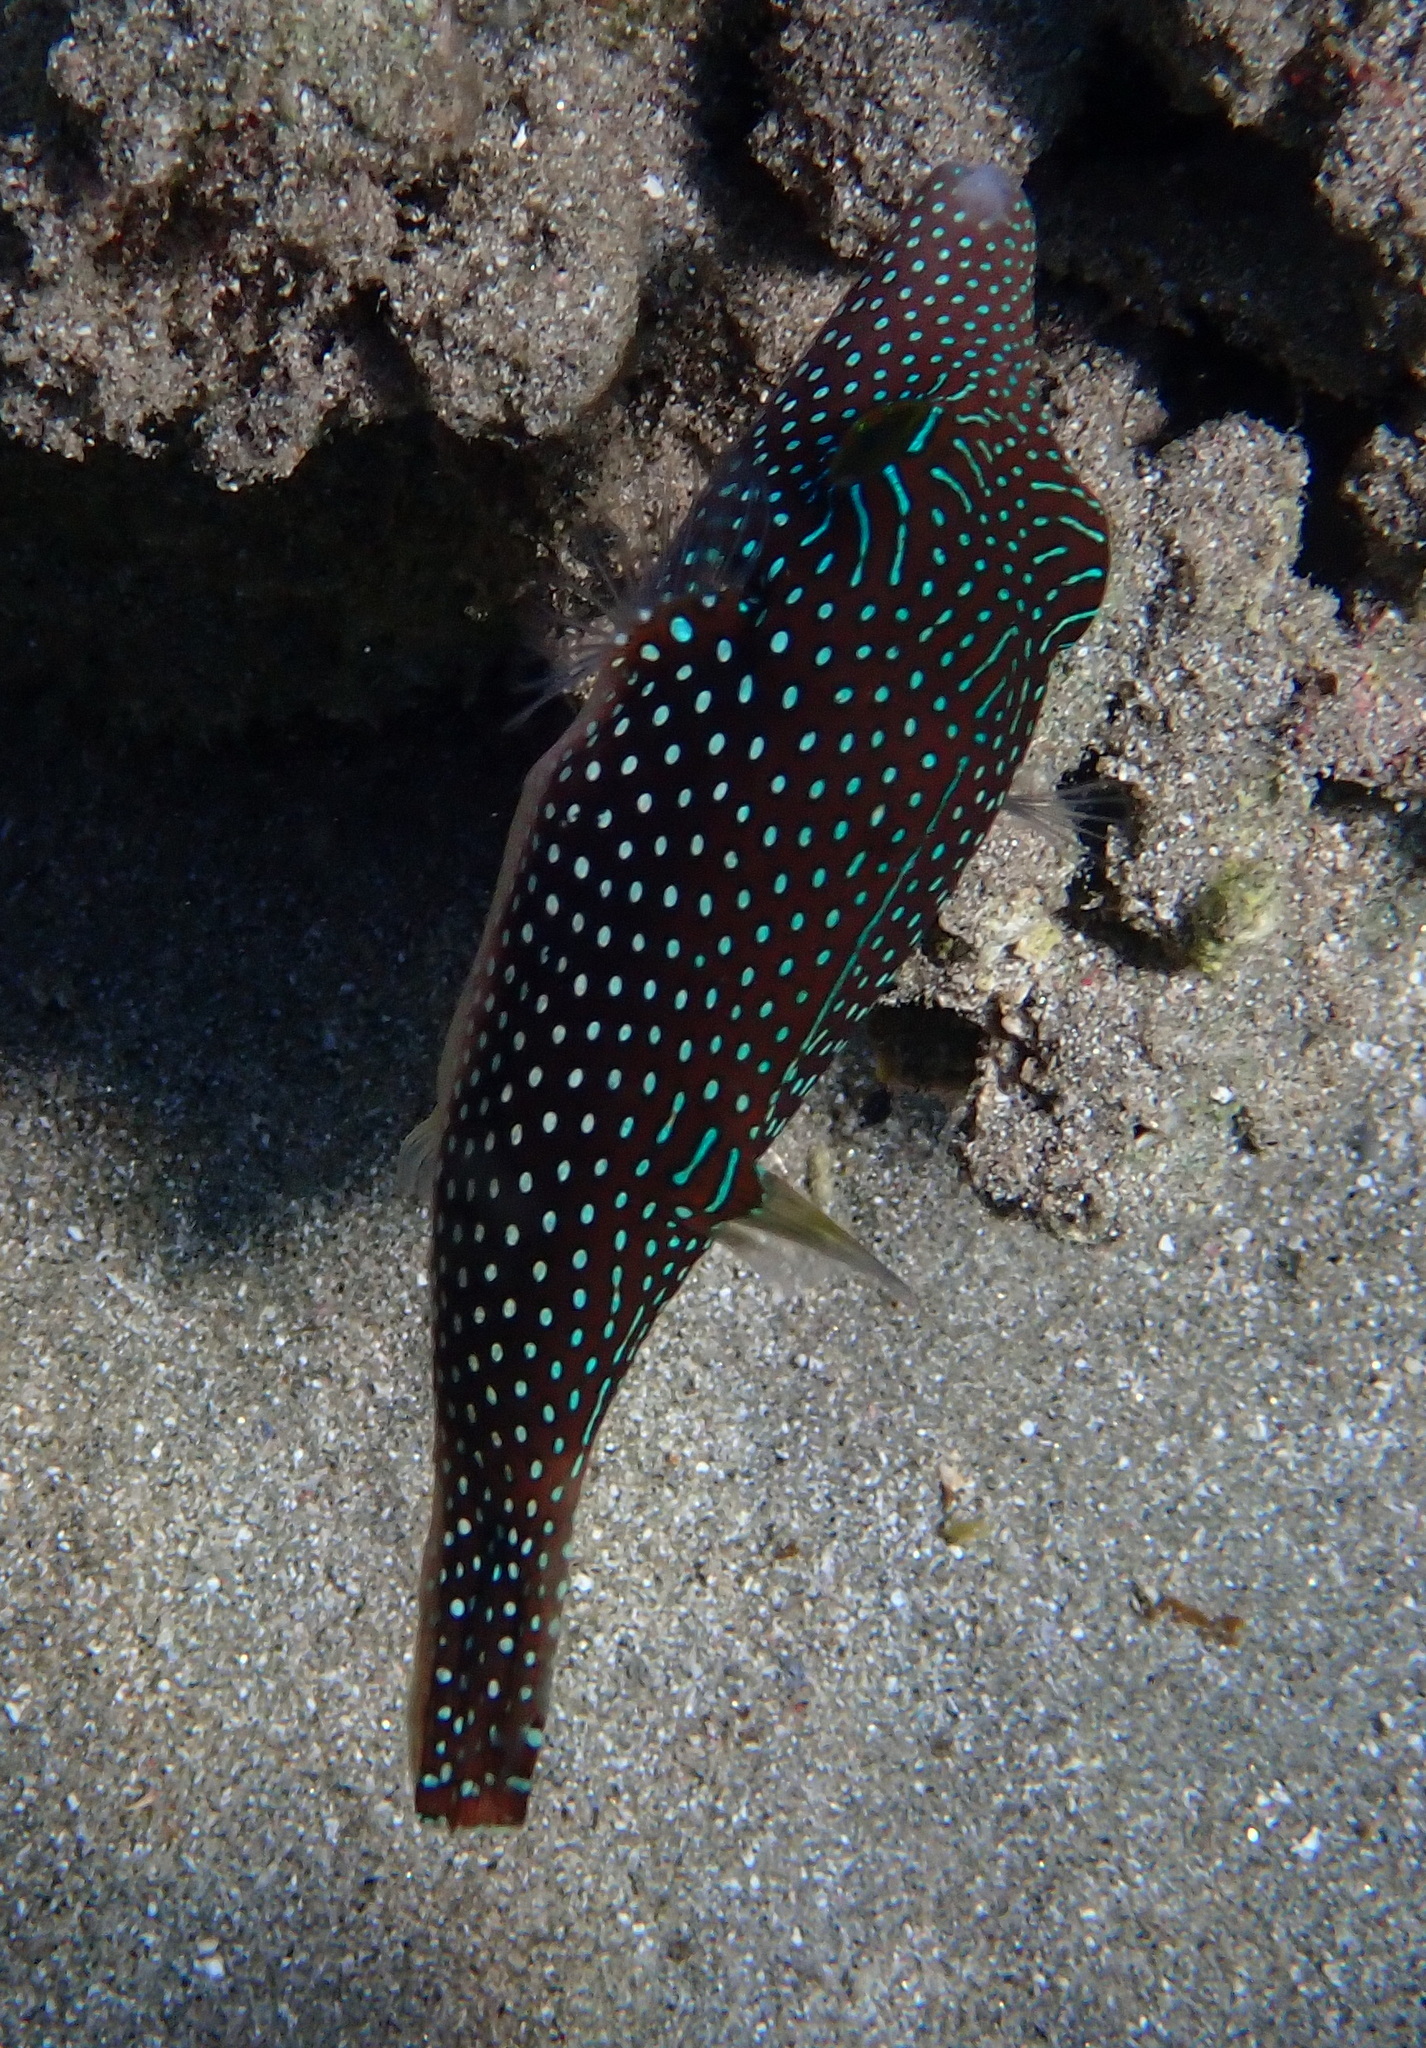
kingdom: Animalia
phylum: Chordata
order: Tetraodontiformes
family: Tetraodontidae
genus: Canthigaster
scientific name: Canthigaster margaritata
